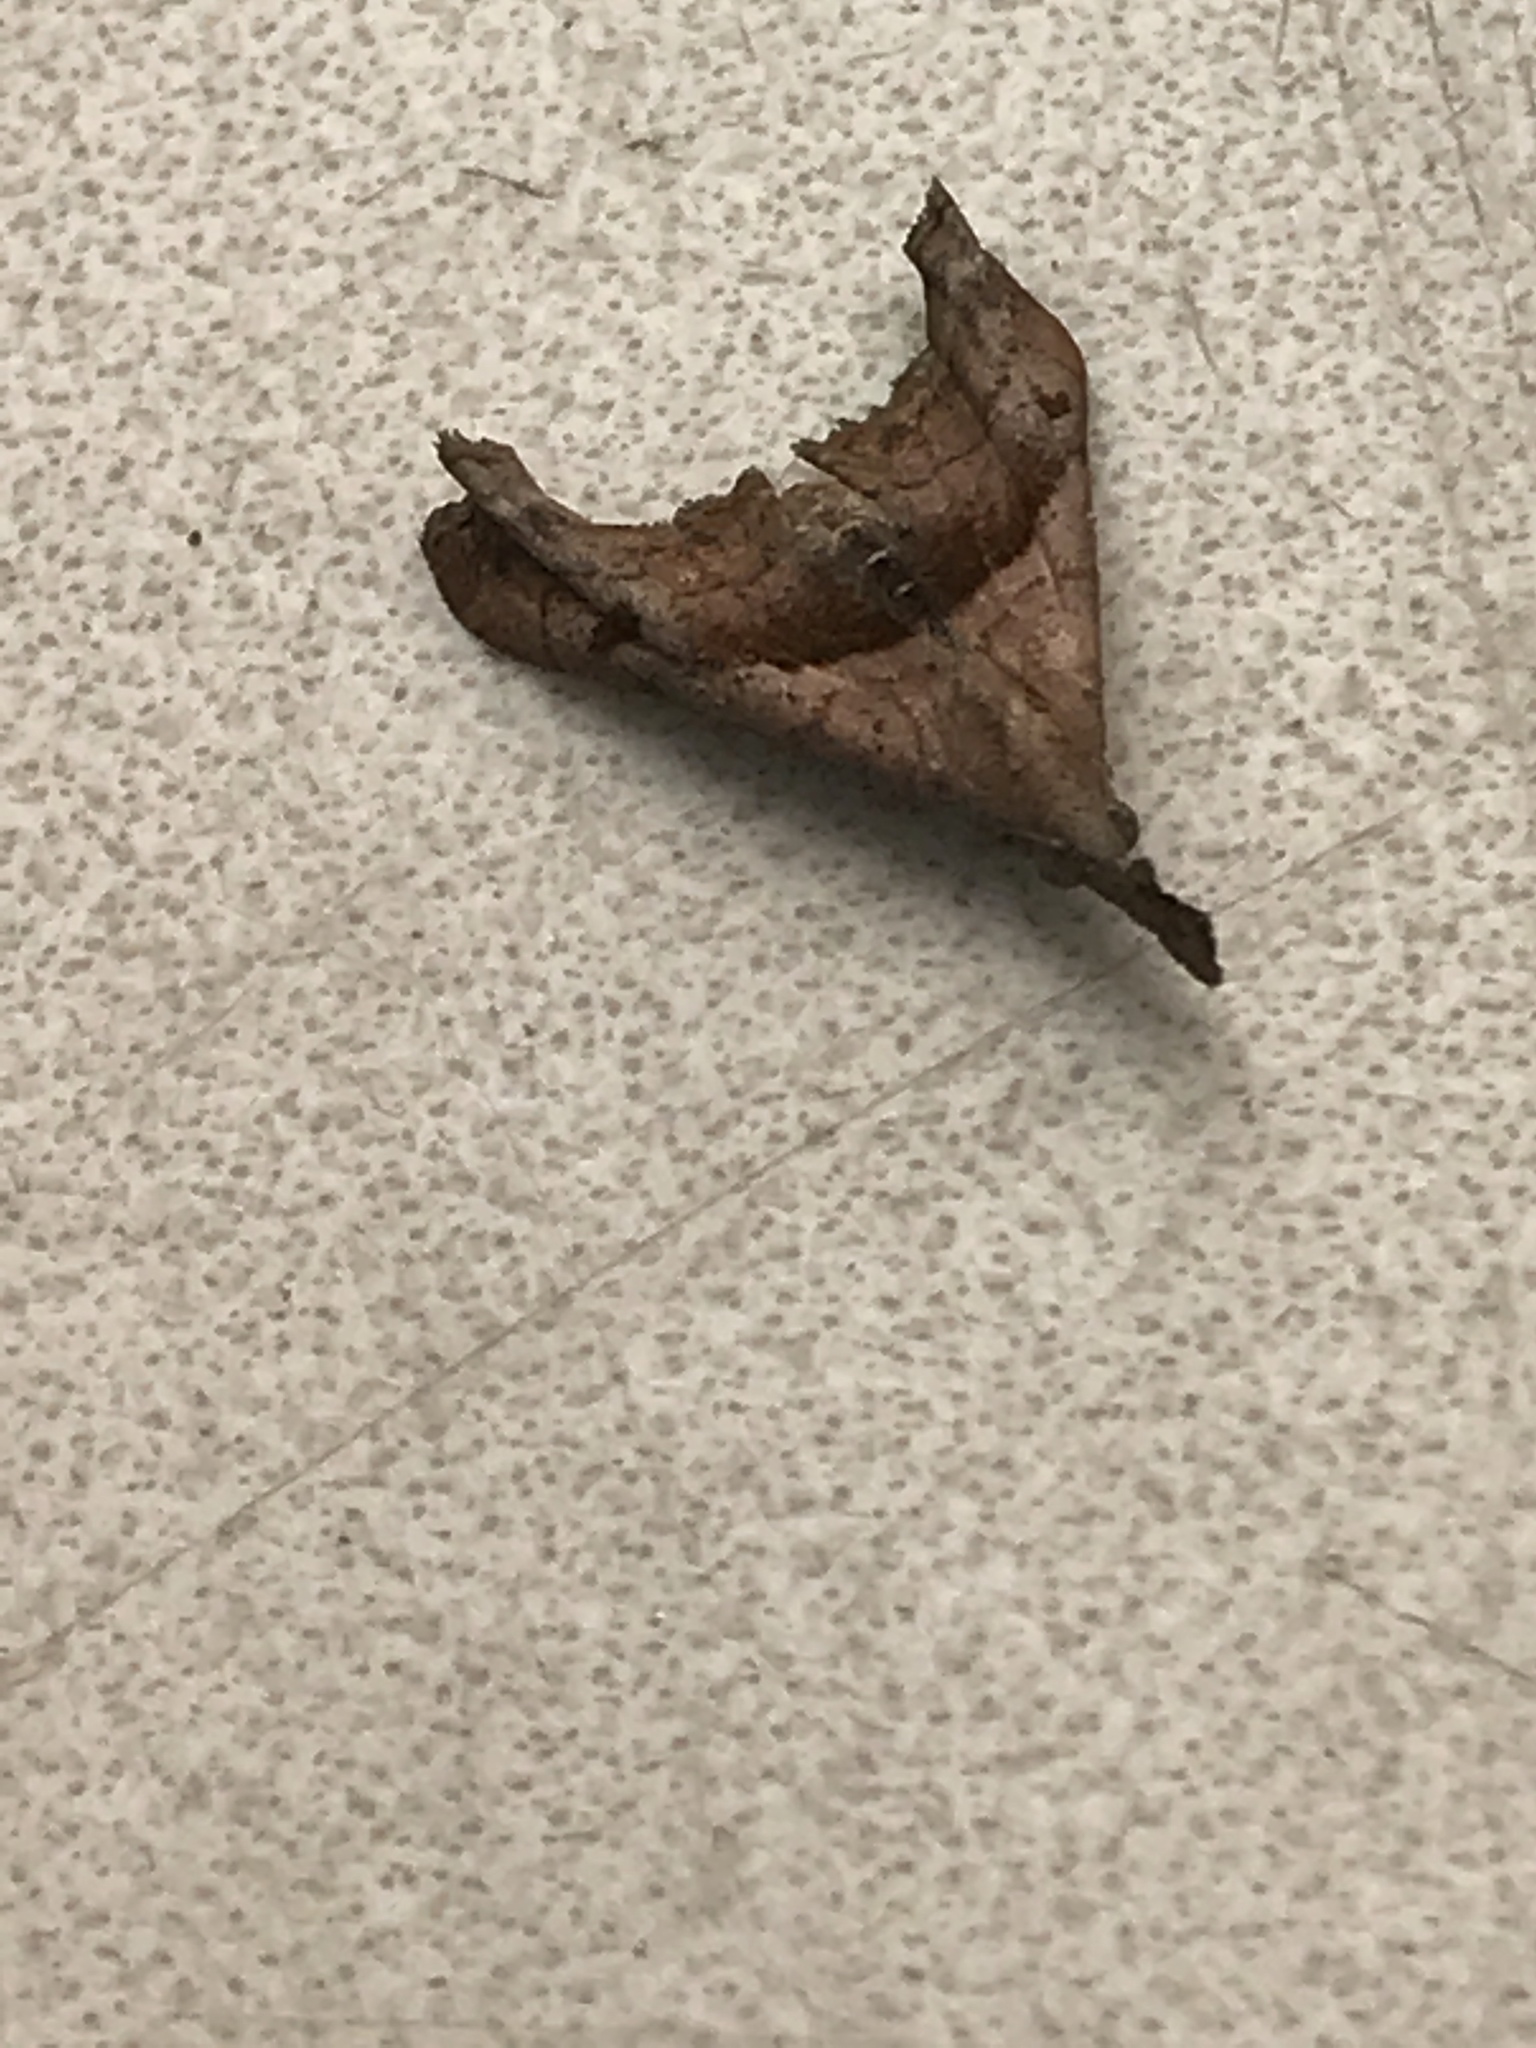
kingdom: Animalia
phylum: Arthropoda
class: Insecta
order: Lepidoptera
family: Erebidae
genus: Palthis
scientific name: Palthis angulalis
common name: Dark-spotted palthis moth
